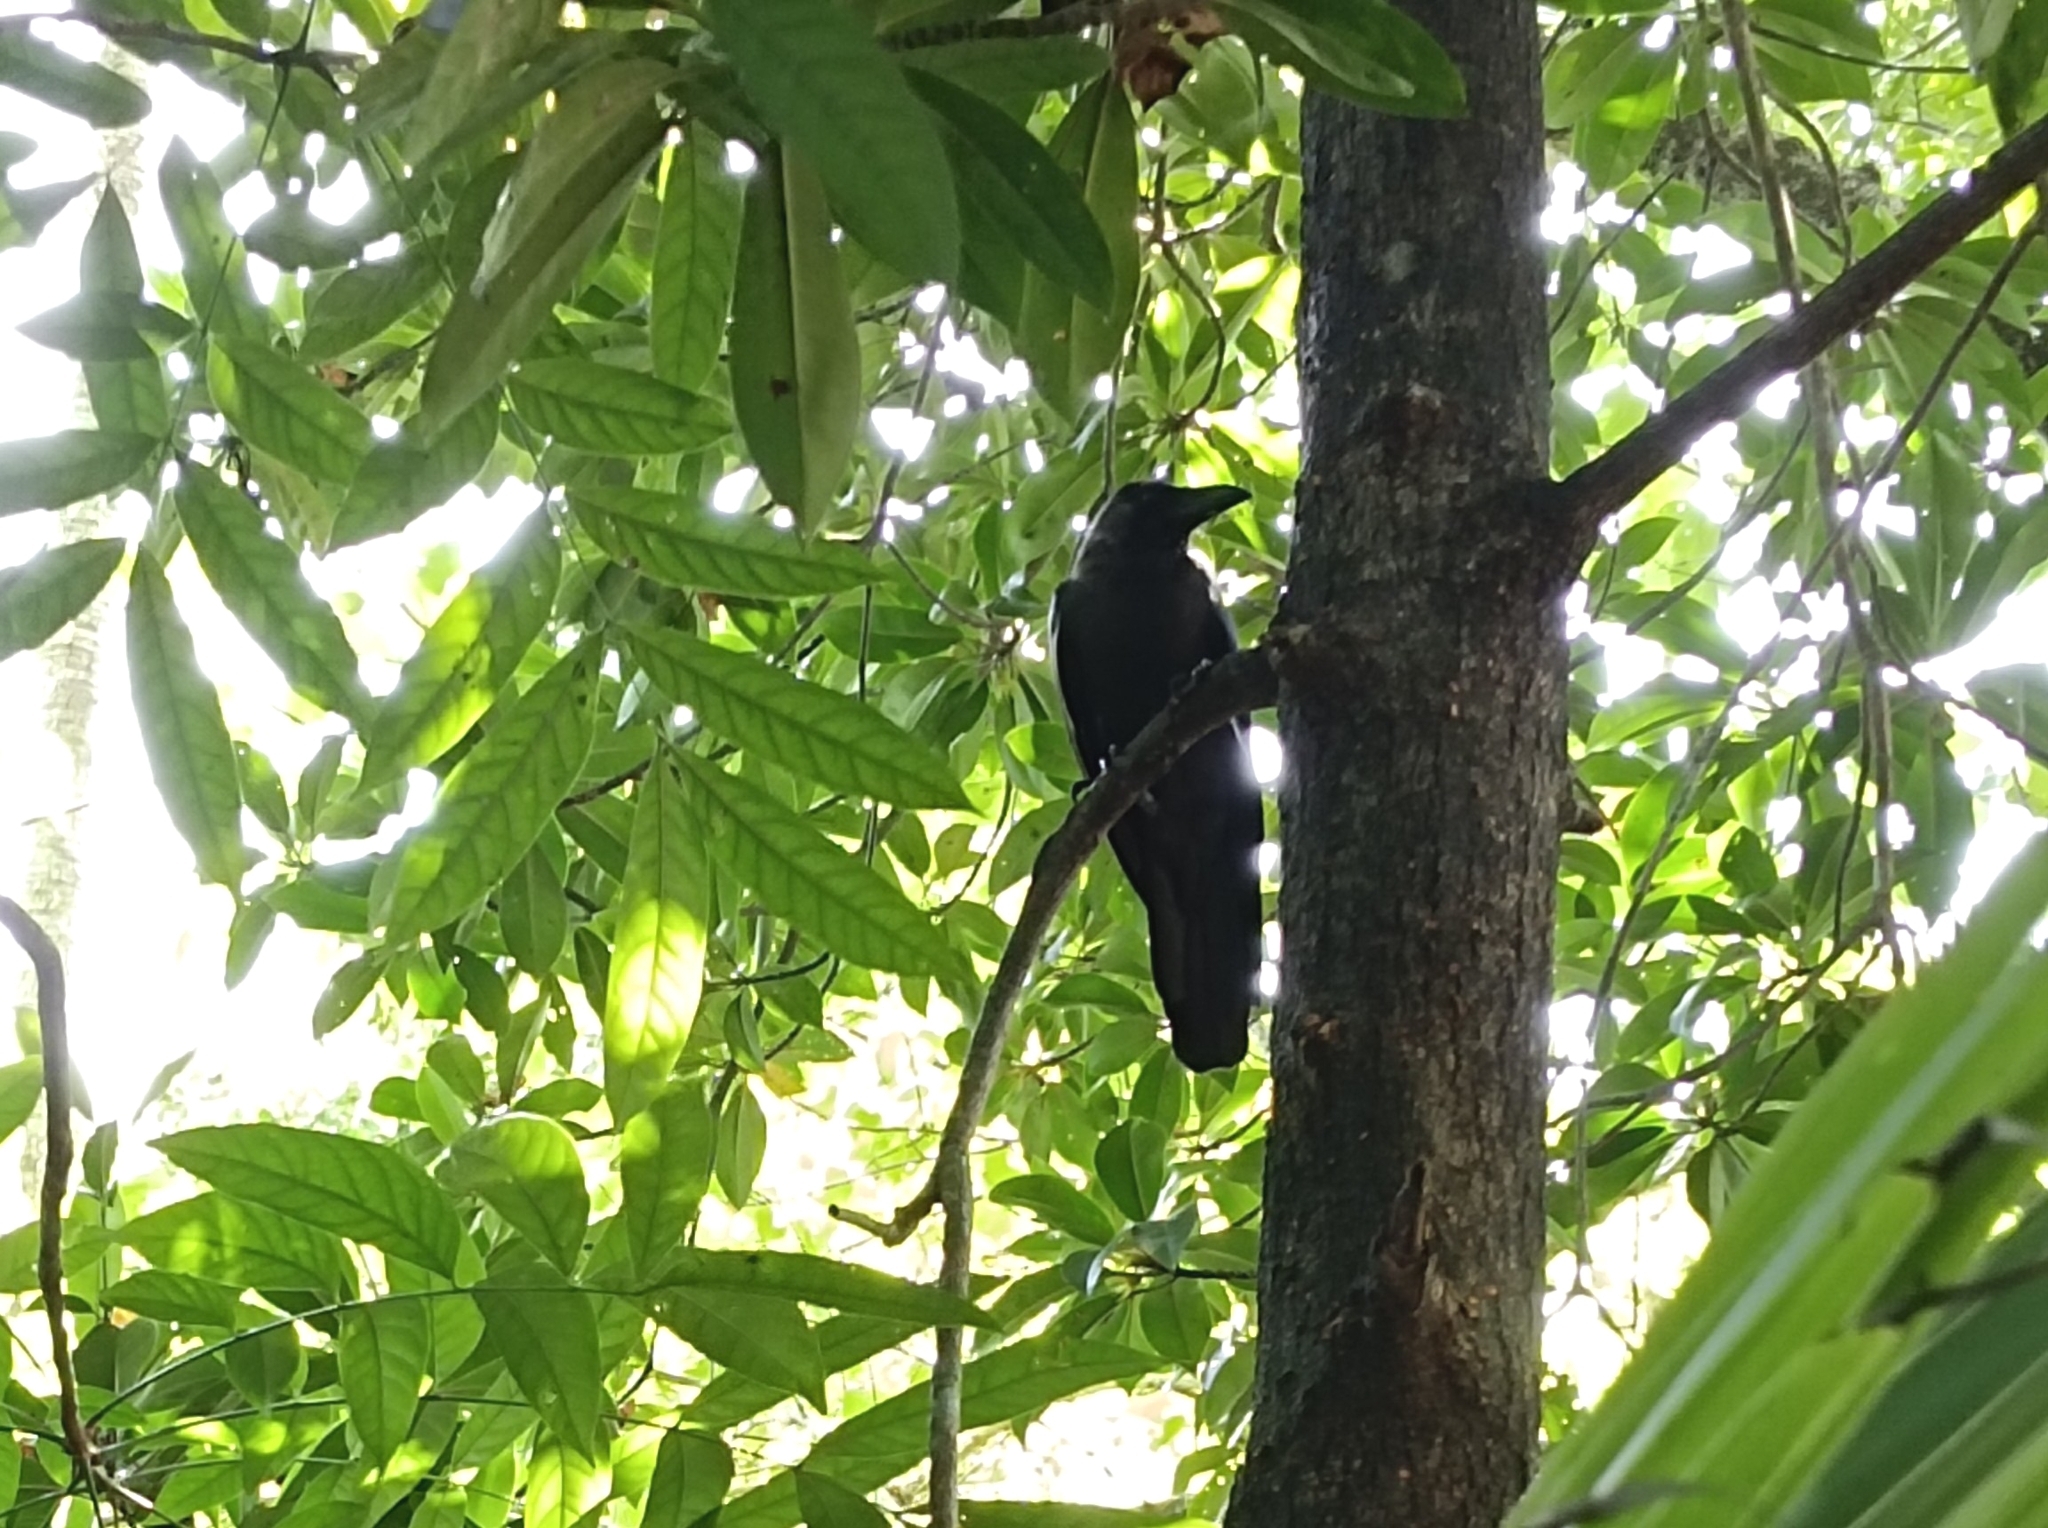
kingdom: Animalia
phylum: Chordata
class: Aves
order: Passeriformes
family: Corvidae
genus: Corvus
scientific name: Corvus splendens
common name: House crow
